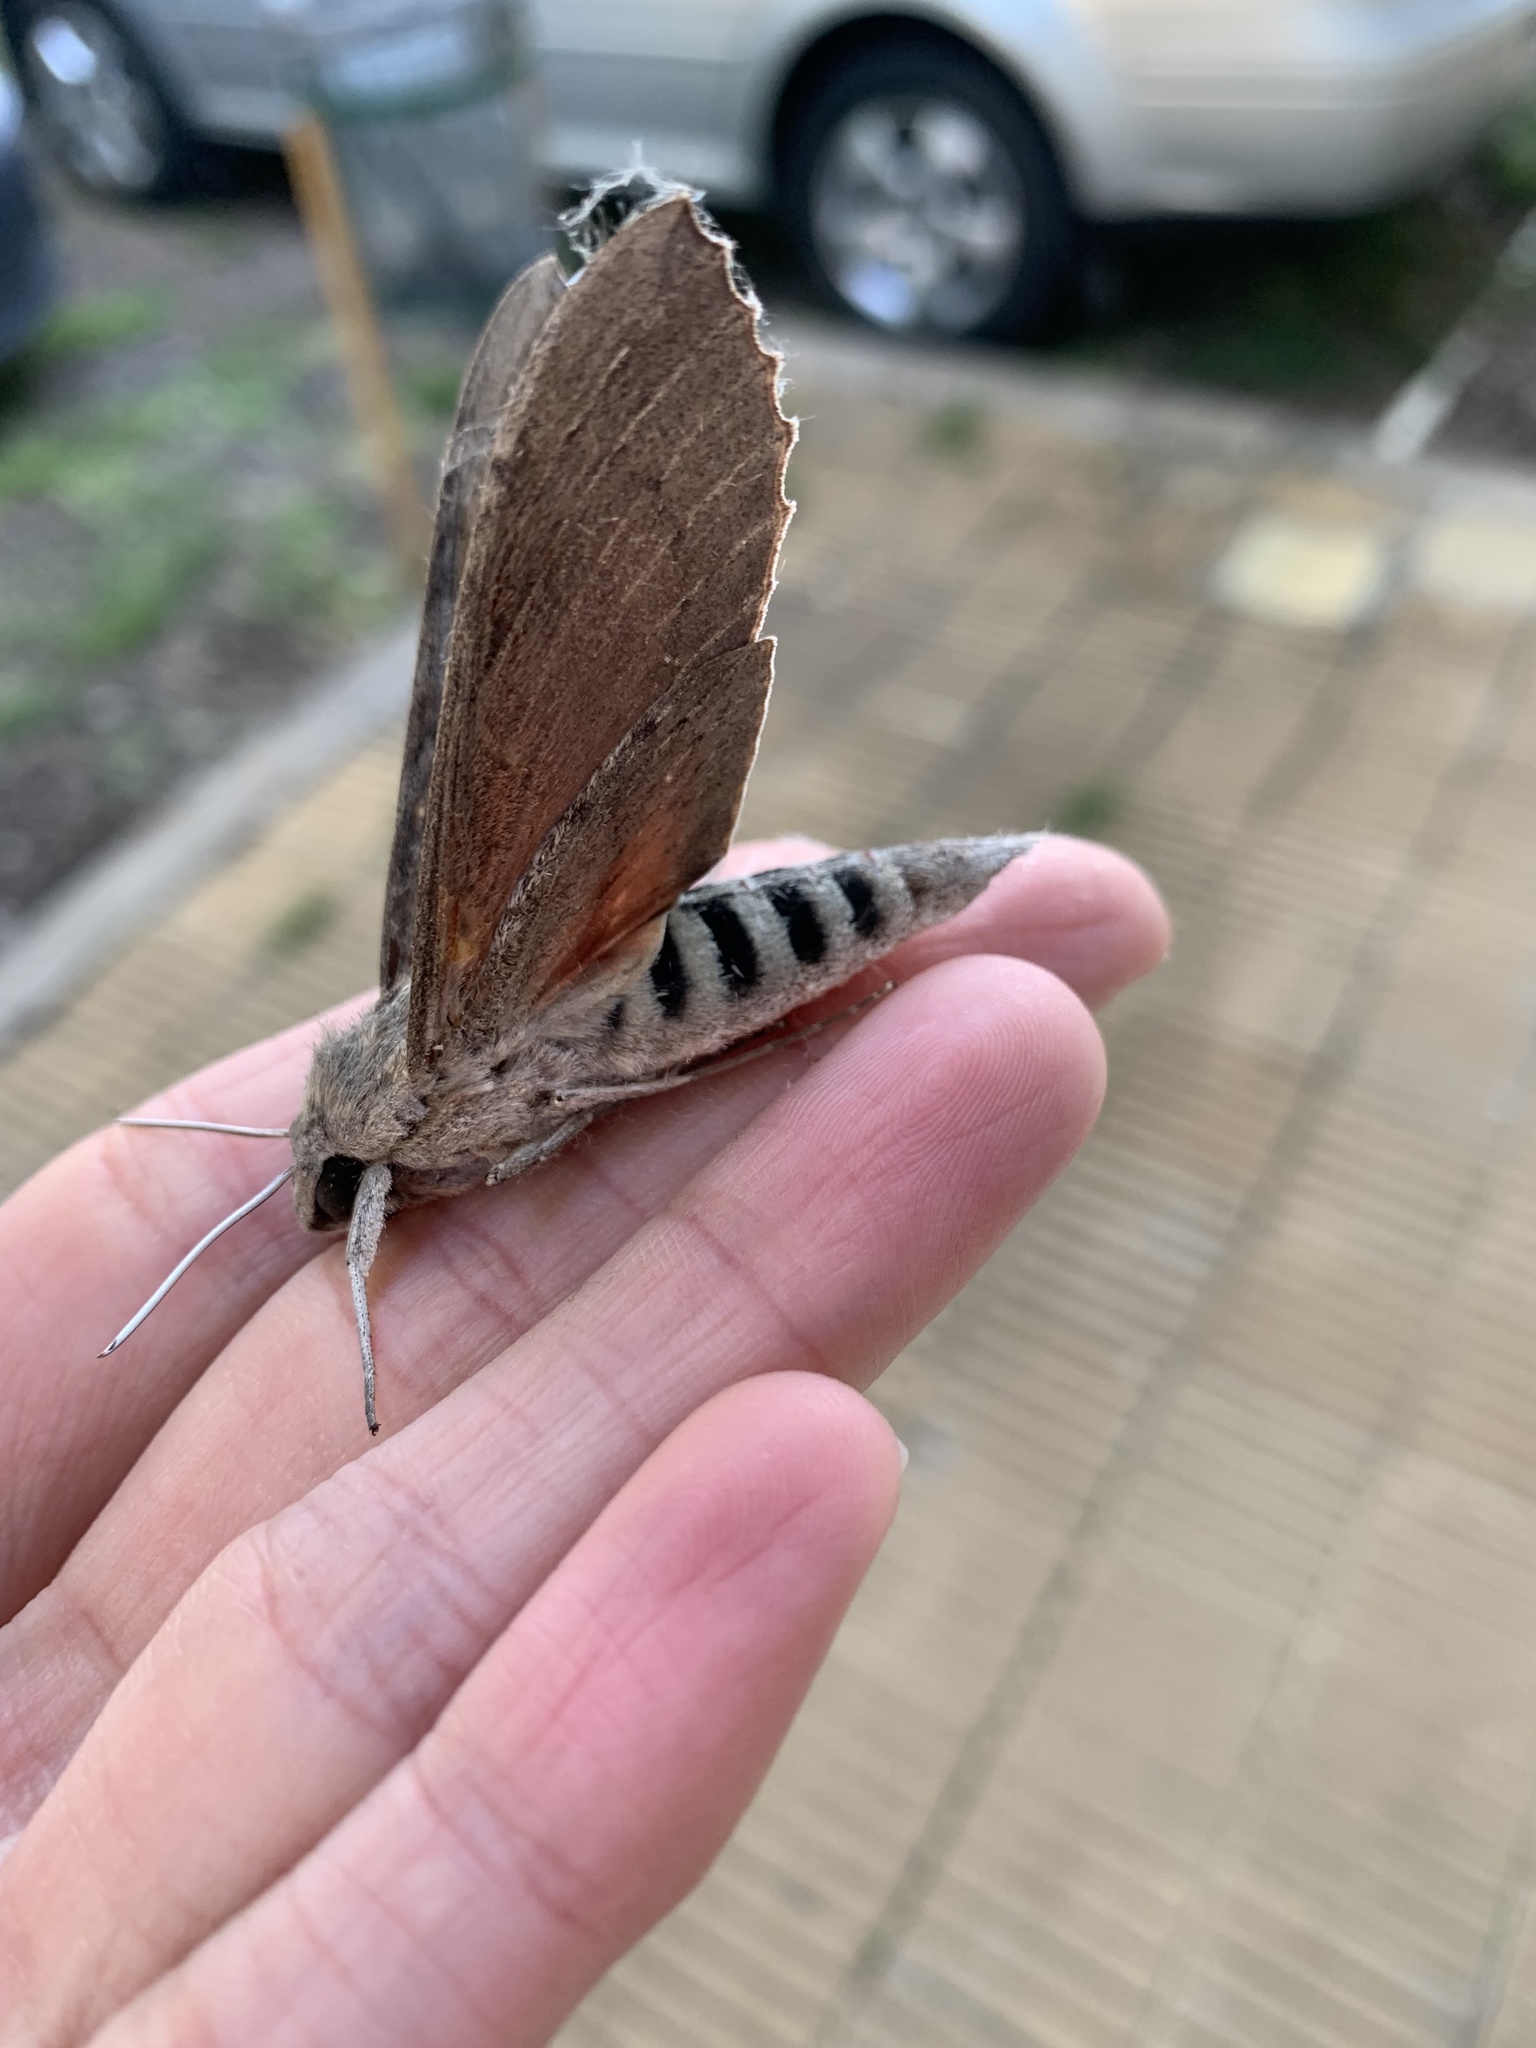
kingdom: Animalia
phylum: Arthropoda
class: Insecta
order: Lepidoptera
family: Sphingidae
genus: Erinnyis
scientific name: Erinnyis ello
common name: Ello sphinx
